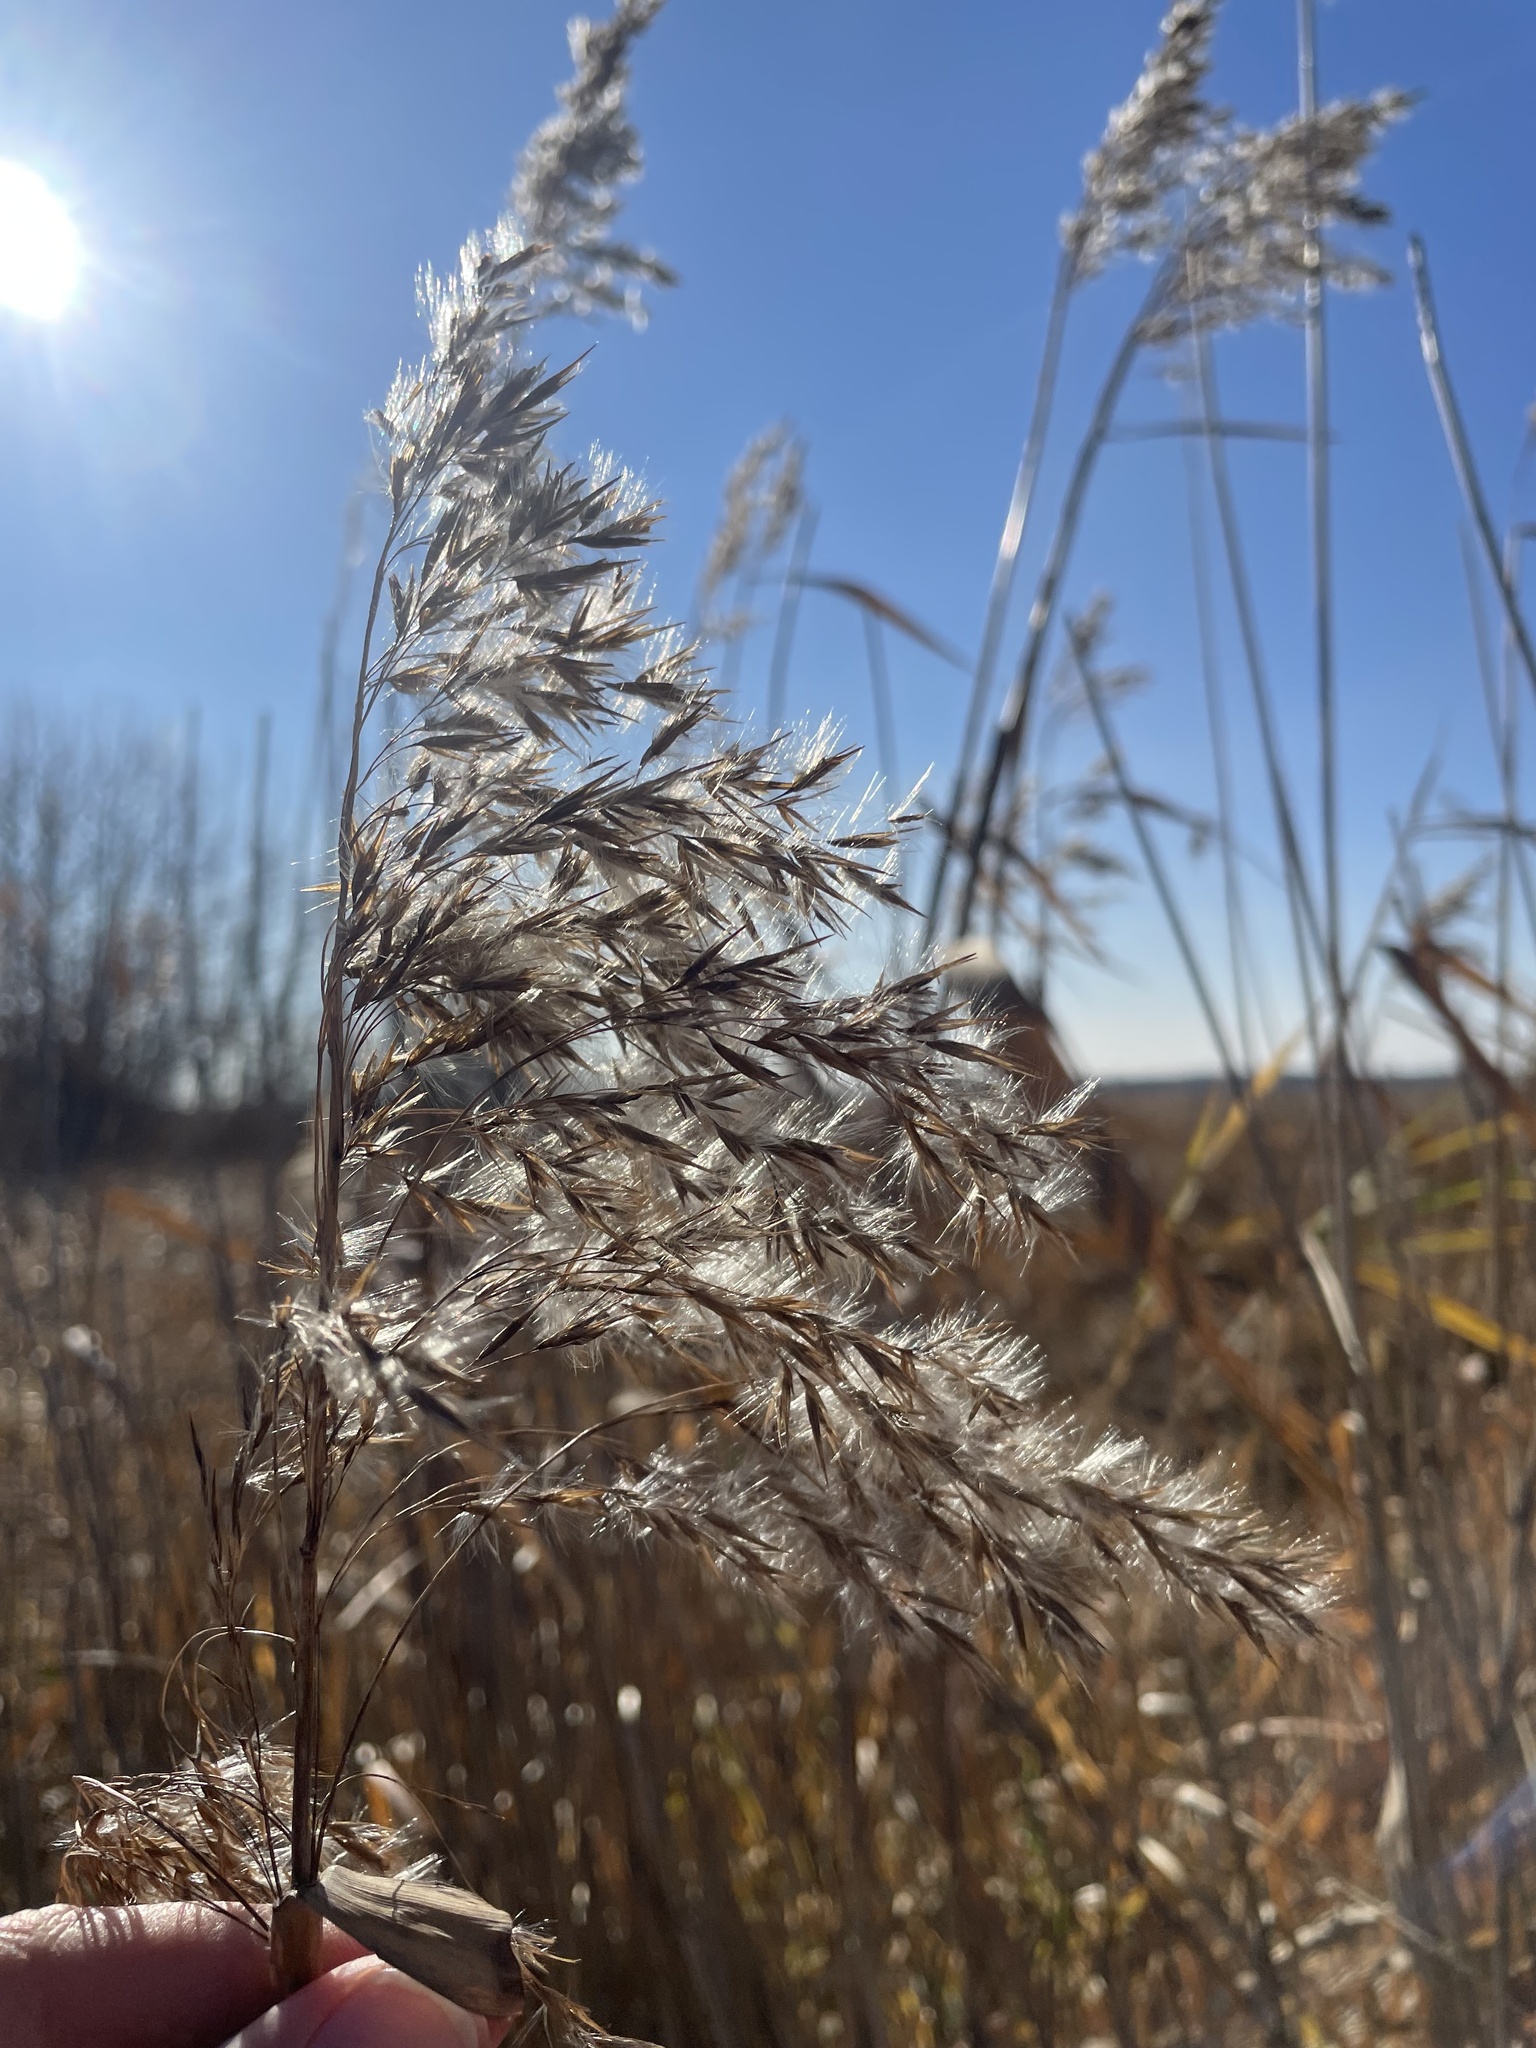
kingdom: Plantae
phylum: Tracheophyta
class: Liliopsida
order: Poales
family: Poaceae
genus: Phragmites
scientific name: Phragmites australis
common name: Common reed
